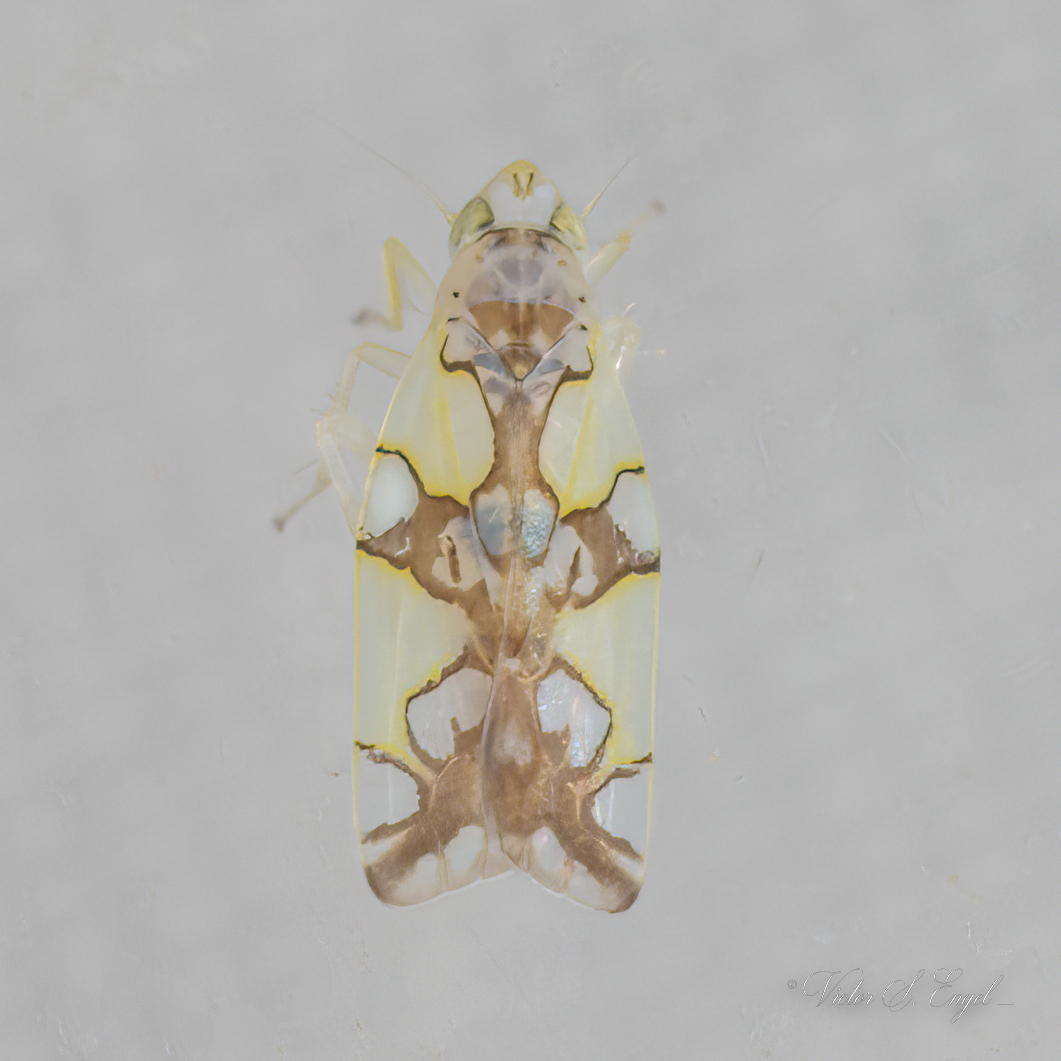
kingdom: Animalia
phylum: Arthropoda
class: Insecta
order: Hemiptera
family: Cicadellidae
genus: Protalebrella
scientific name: Protalebrella conica
